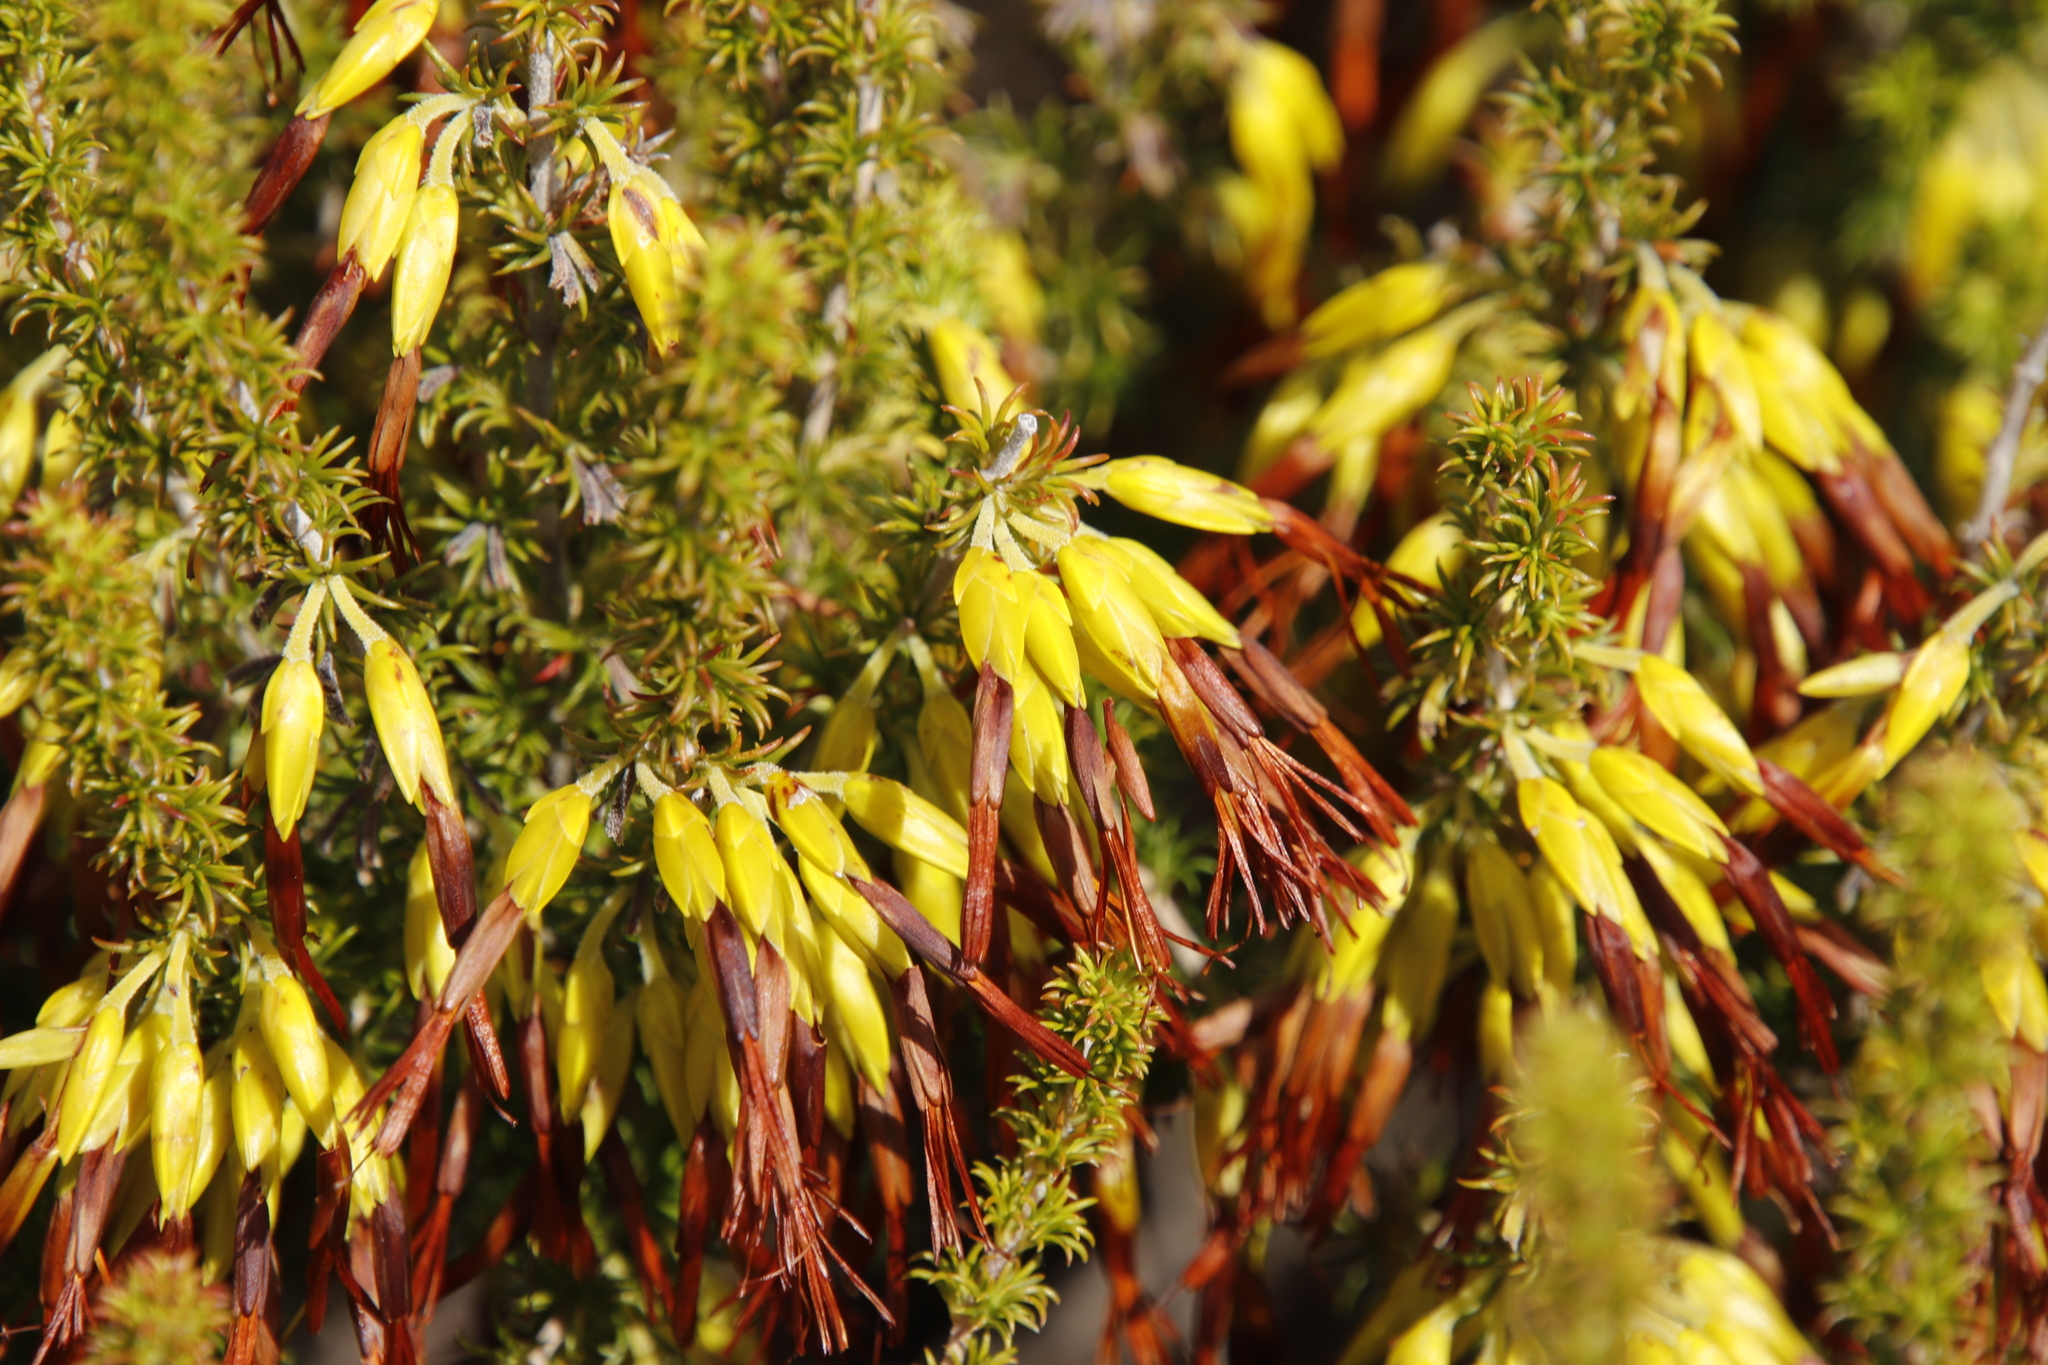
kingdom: Plantae
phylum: Tracheophyta
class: Magnoliopsida
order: Ericales
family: Ericaceae
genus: Erica
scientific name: Erica coccinea
